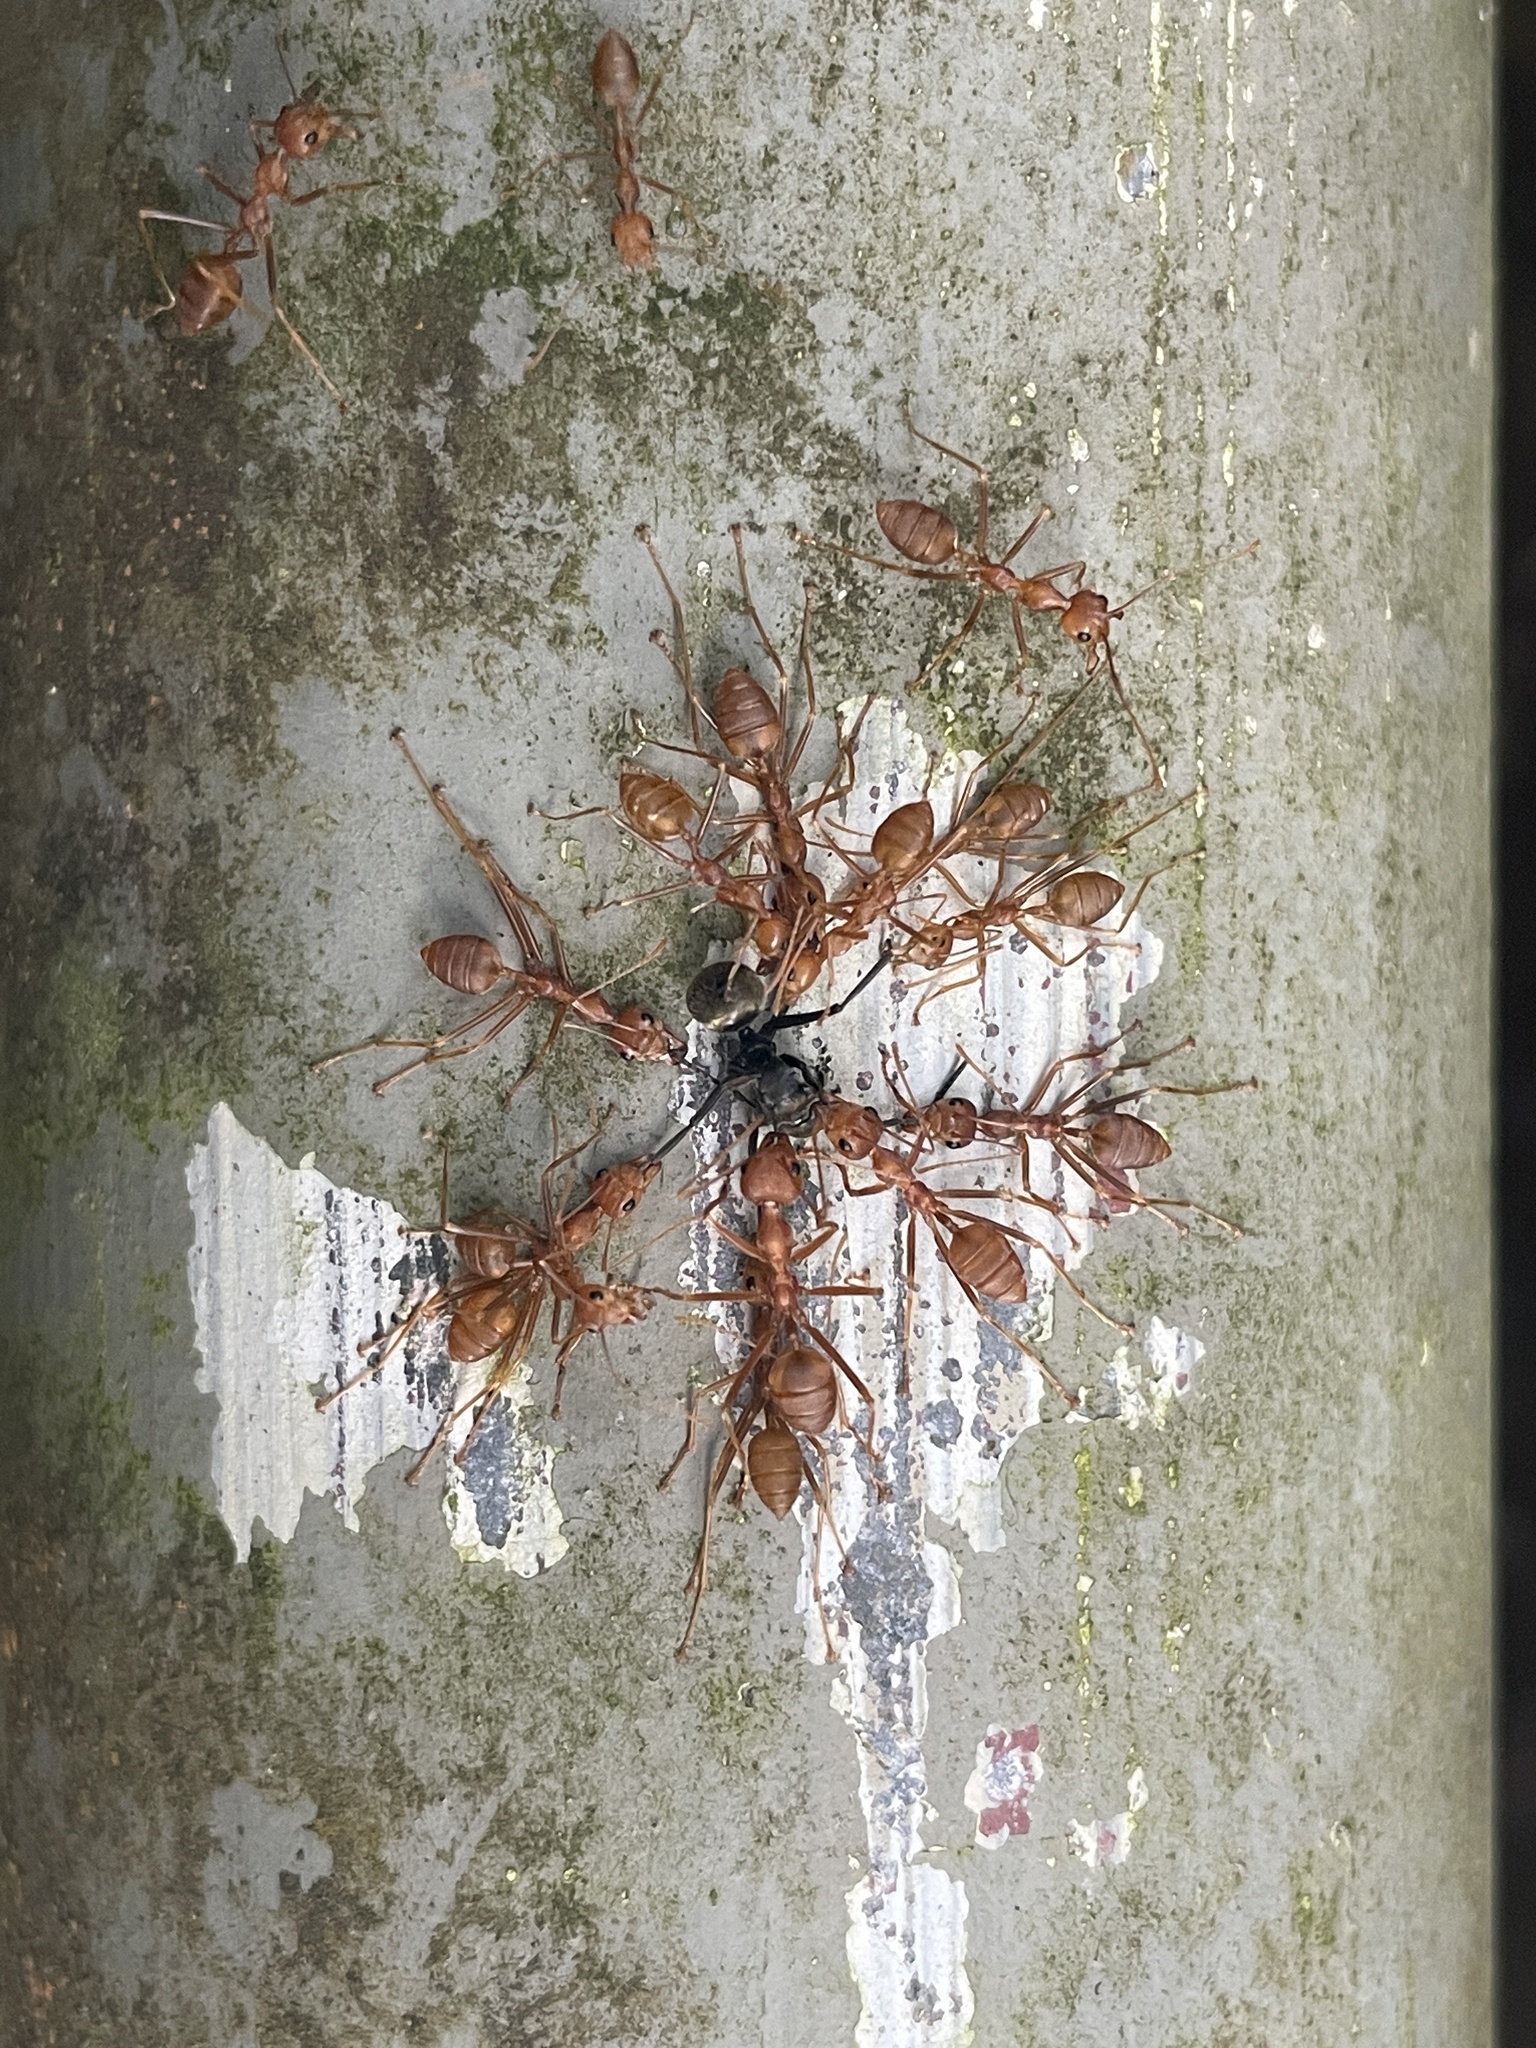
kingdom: Animalia
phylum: Arthropoda
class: Insecta
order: Hymenoptera
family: Formicidae
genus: Oecophylla
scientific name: Oecophylla smaragdina
